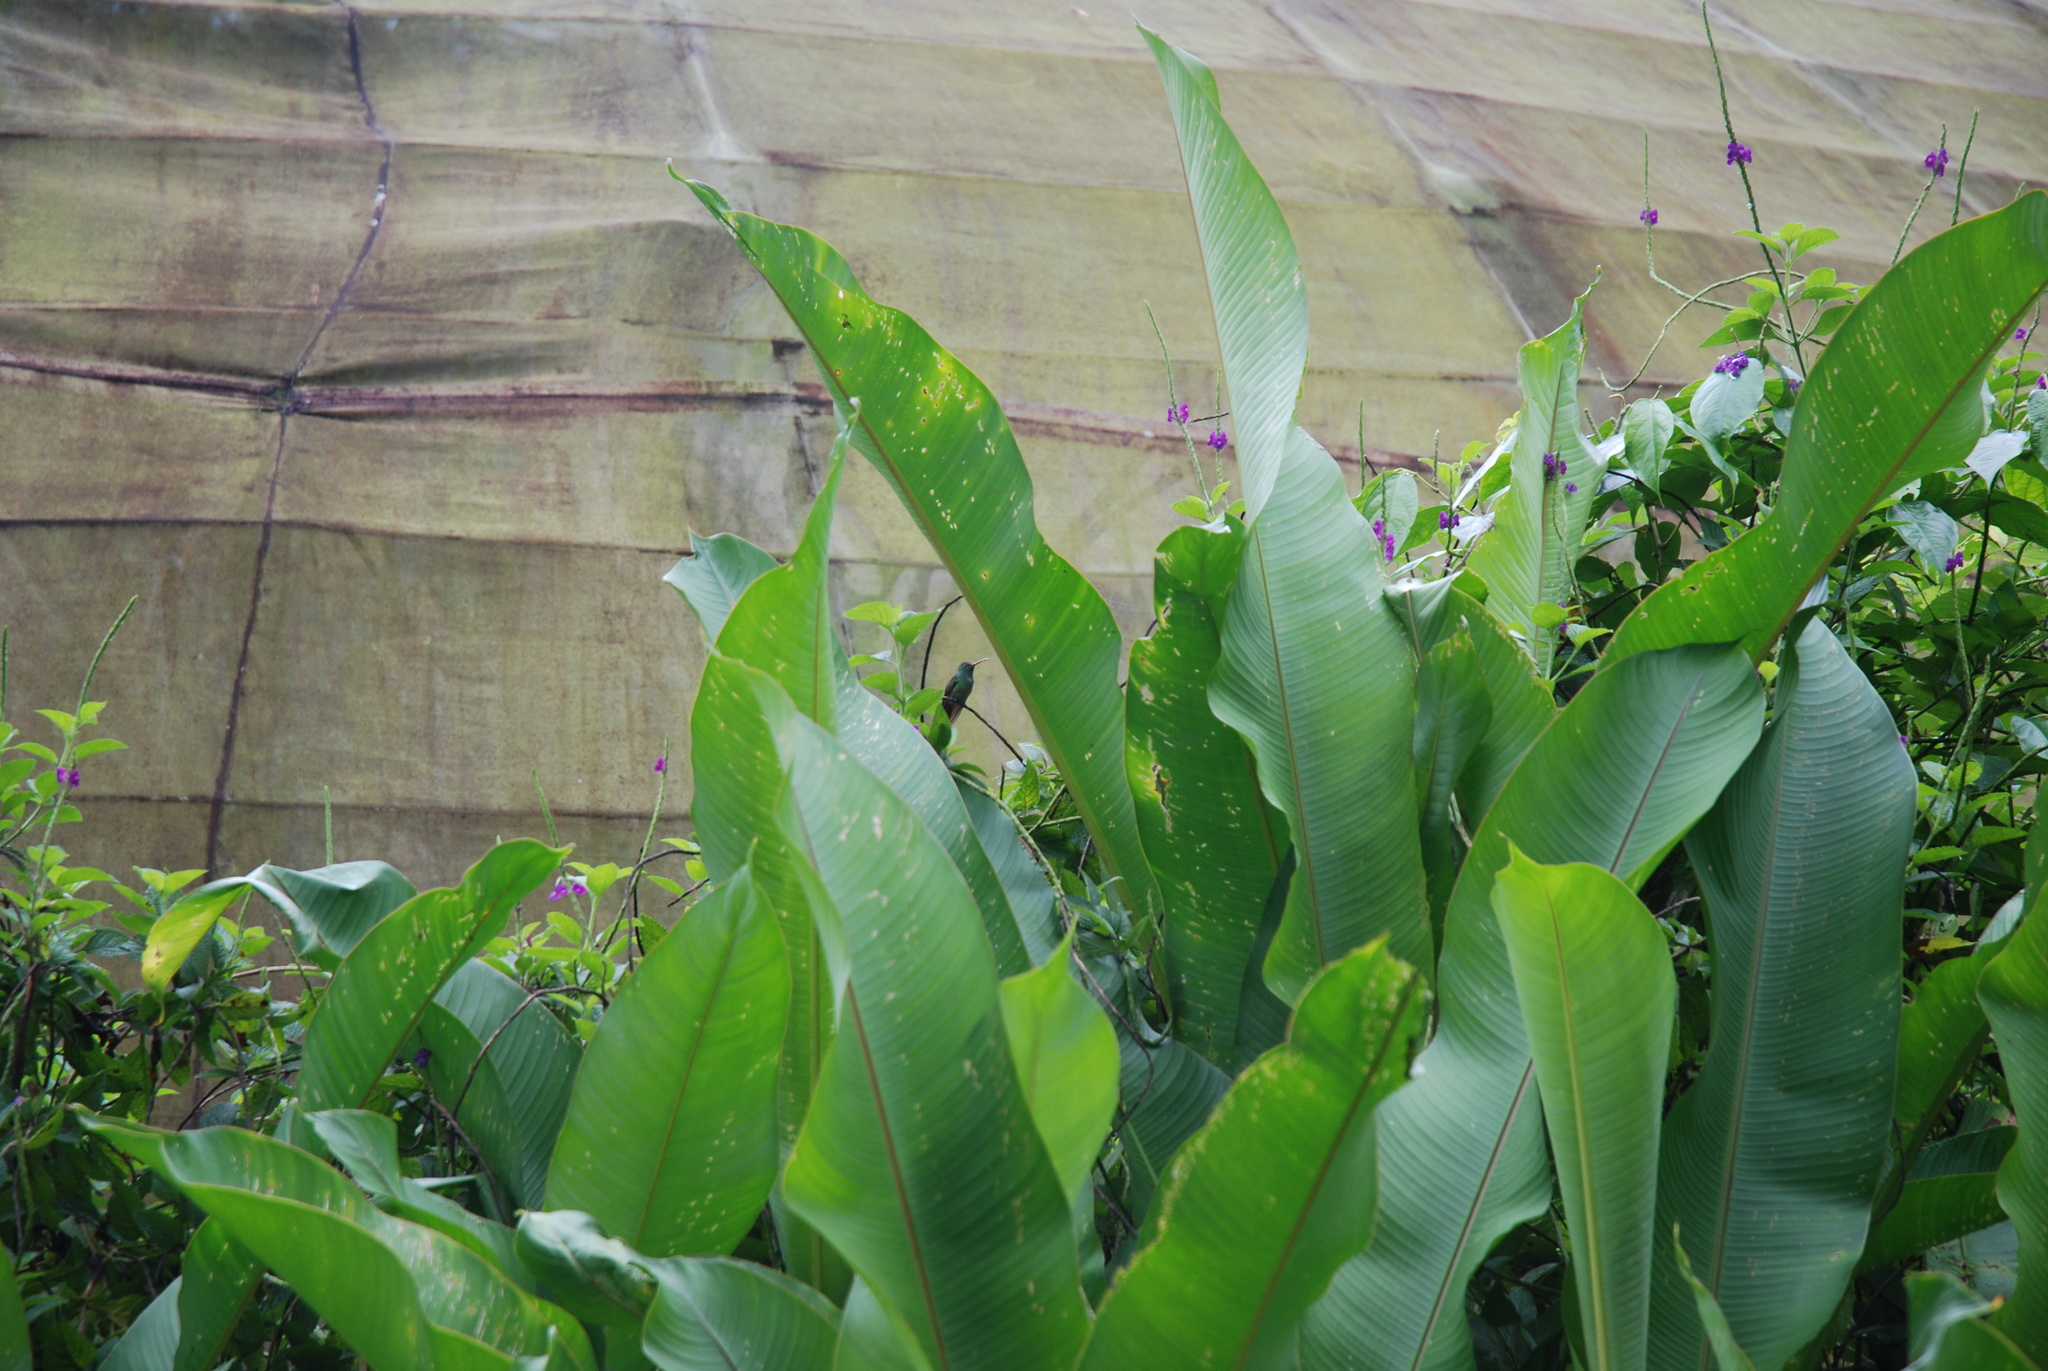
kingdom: Animalia
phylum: Chordata
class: Aves
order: Apodiformes
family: Trochilidae
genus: Amazilia
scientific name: Amazilia tzacatl
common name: Rufous-tailed hummingbird
